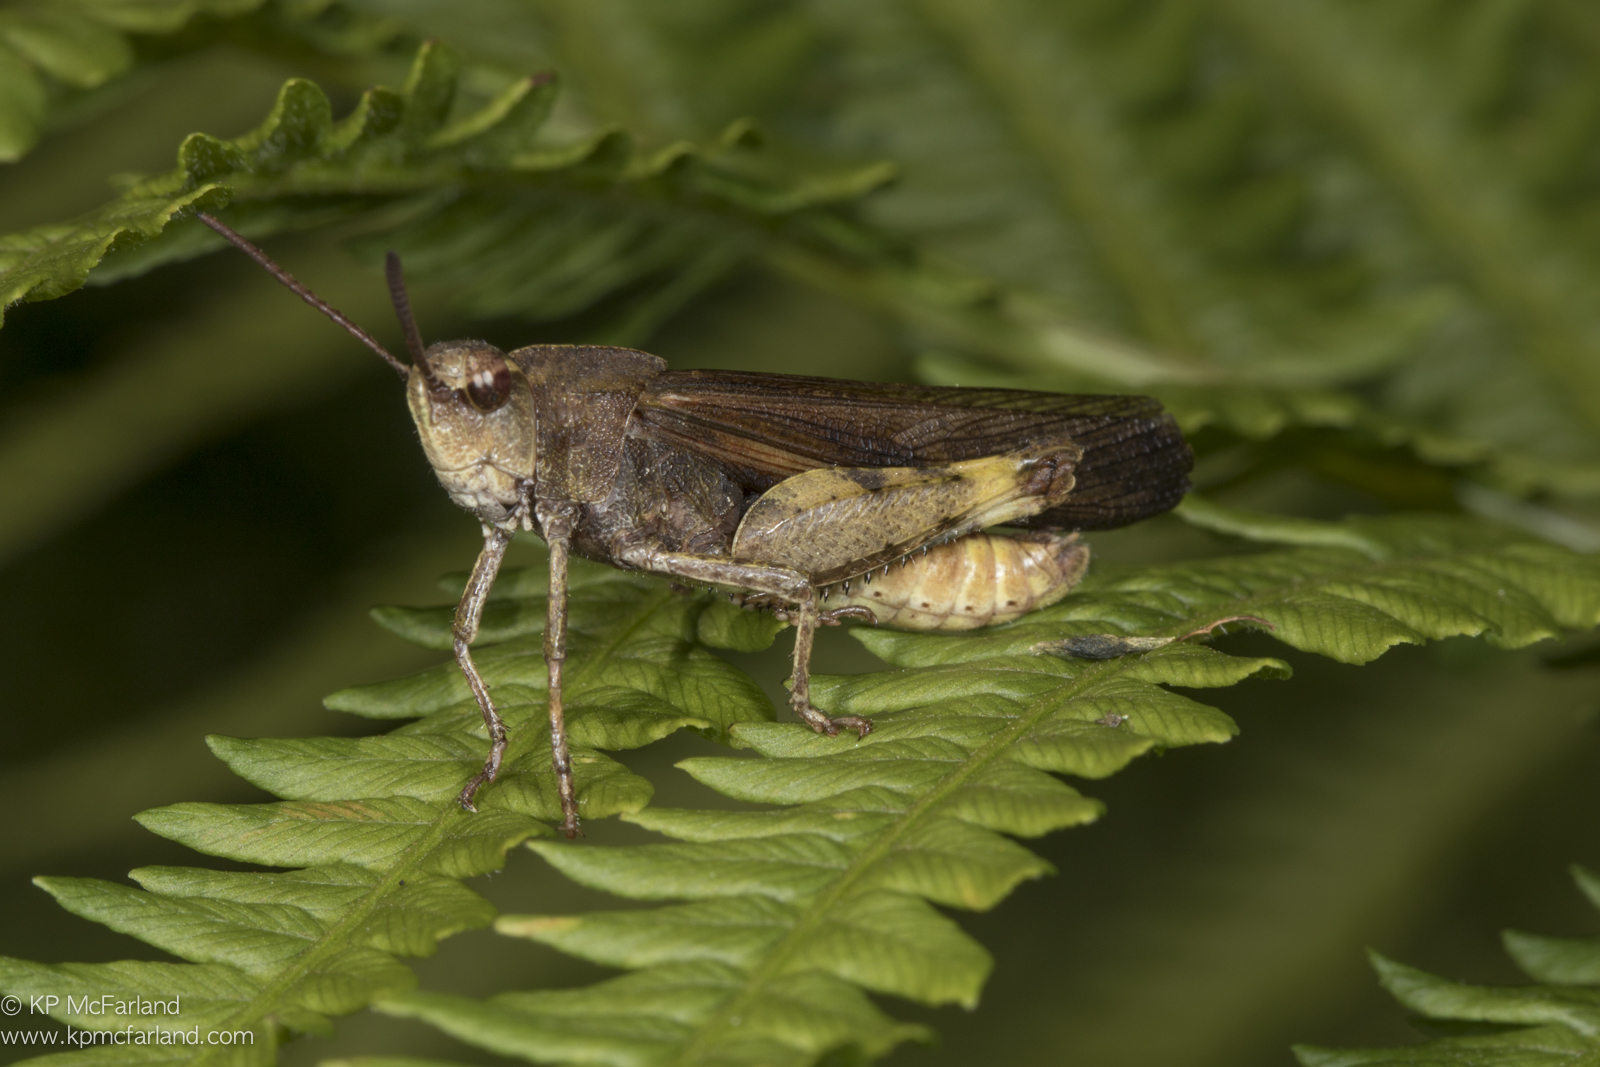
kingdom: Animalia
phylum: Arthropoda
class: Insecta
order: Orthoptera
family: Acrididae
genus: Chortophaga
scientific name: Chortophaga viridifasciata
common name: Green-striped grasshopper
